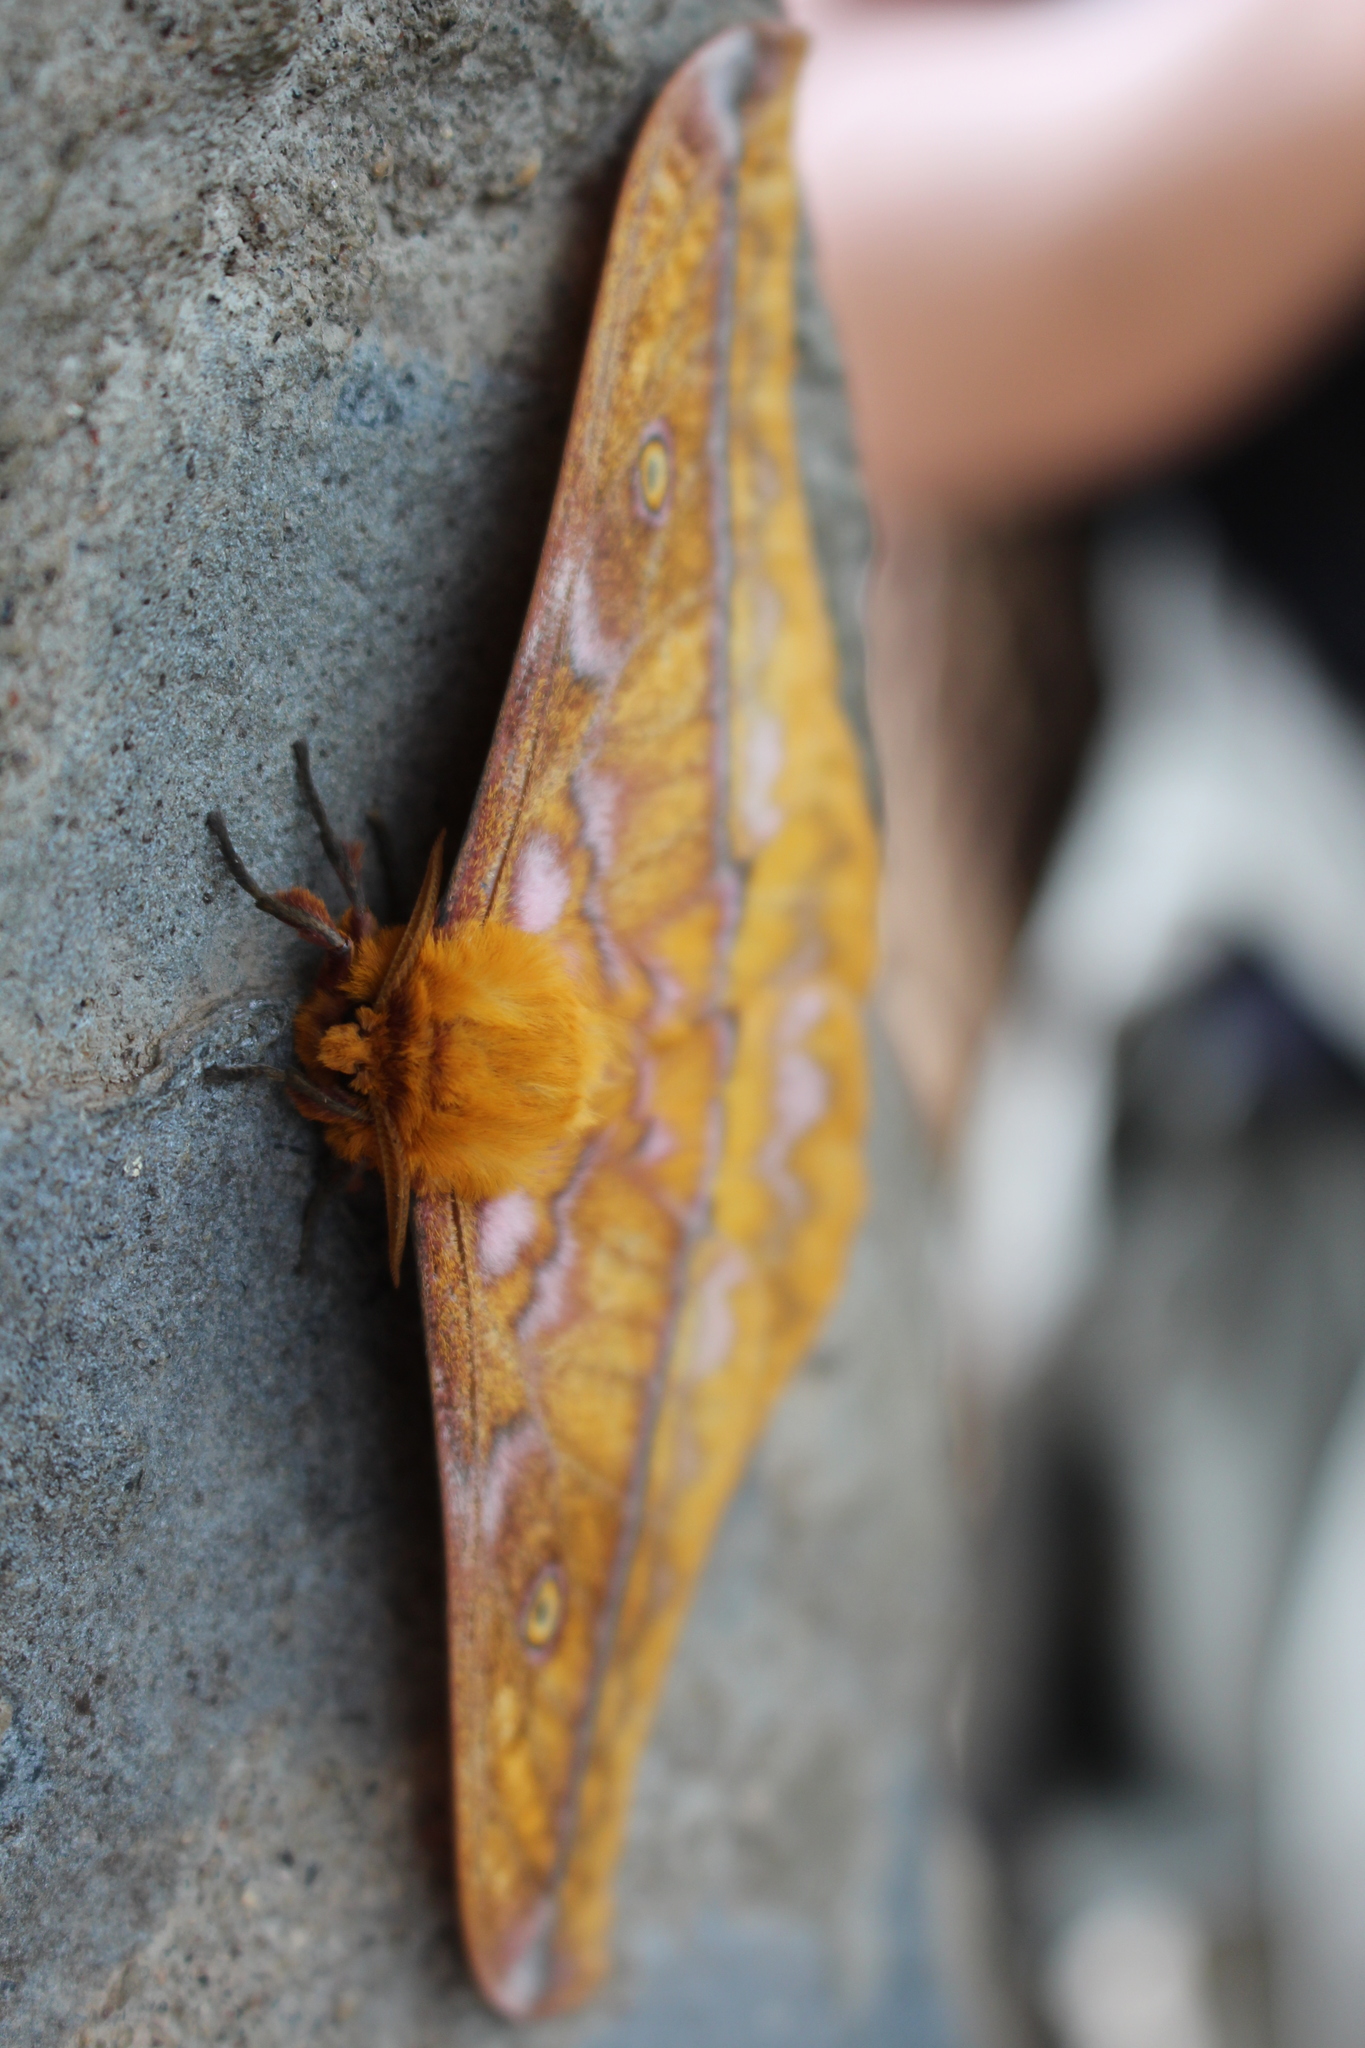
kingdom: Animalia
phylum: Arthropoda
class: Insecta
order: Lepidoptera
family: Saturniidae
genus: Nudaurelia
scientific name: Nudaurelia wahlbergi
